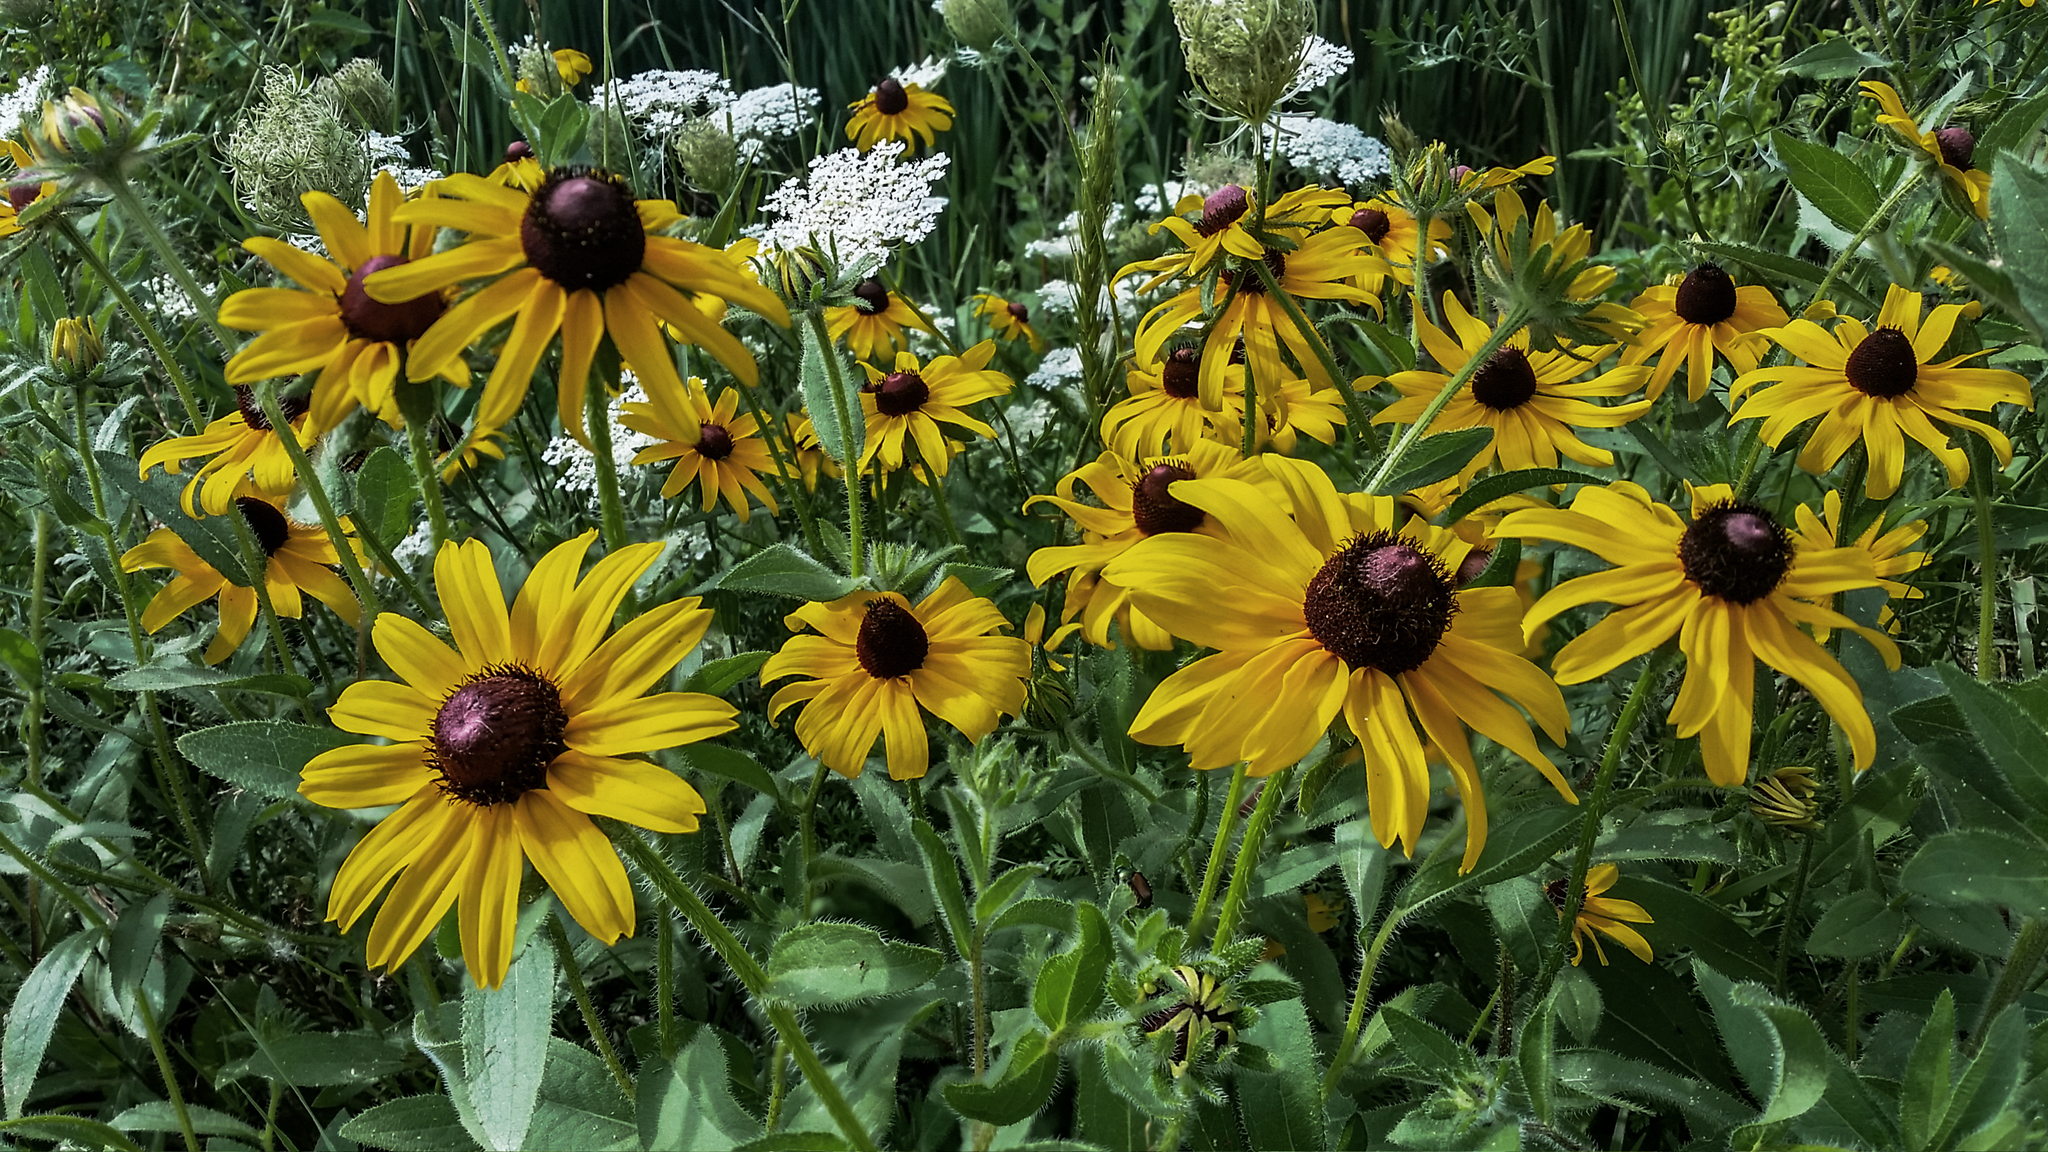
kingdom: Plantae
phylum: Tracheophyta
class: Magnoliopsida
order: Asterales
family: Asteraceae
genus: Rudbeckia
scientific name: Rudbeckia hirta
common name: Black-eyed-susan
